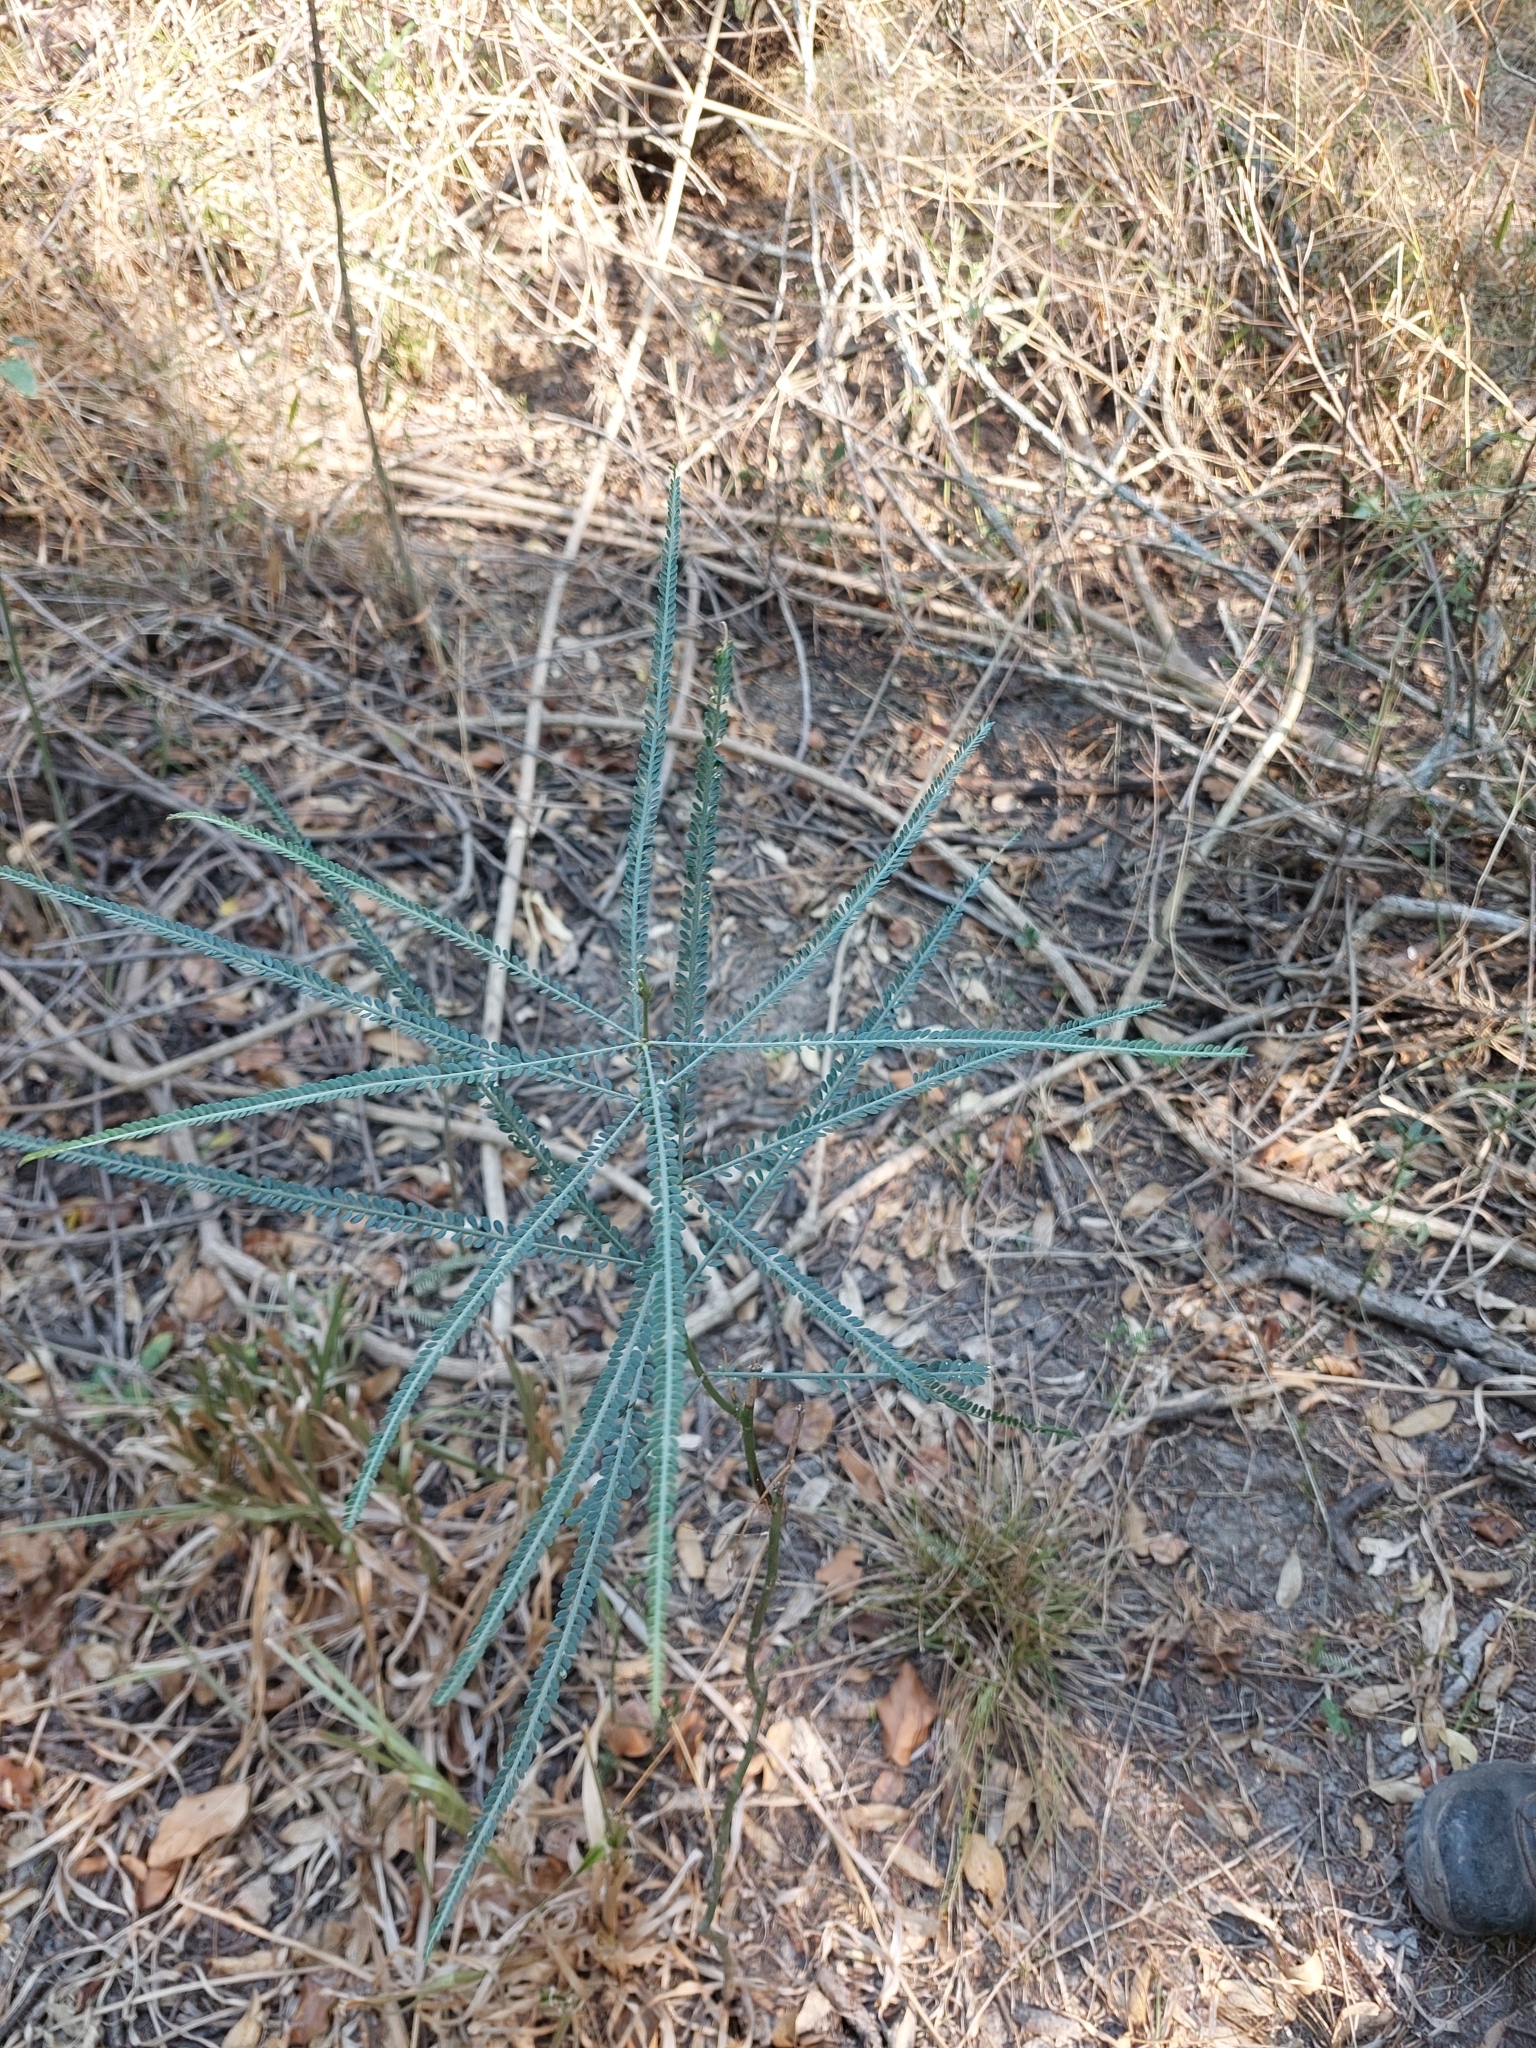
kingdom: Plantae
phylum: Tracheophyta
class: Magnoliopsida
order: Fabales
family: Fabaceae
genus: Parkinsonia
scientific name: Parkinsonia aculeata
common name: Jerusalem thorn
